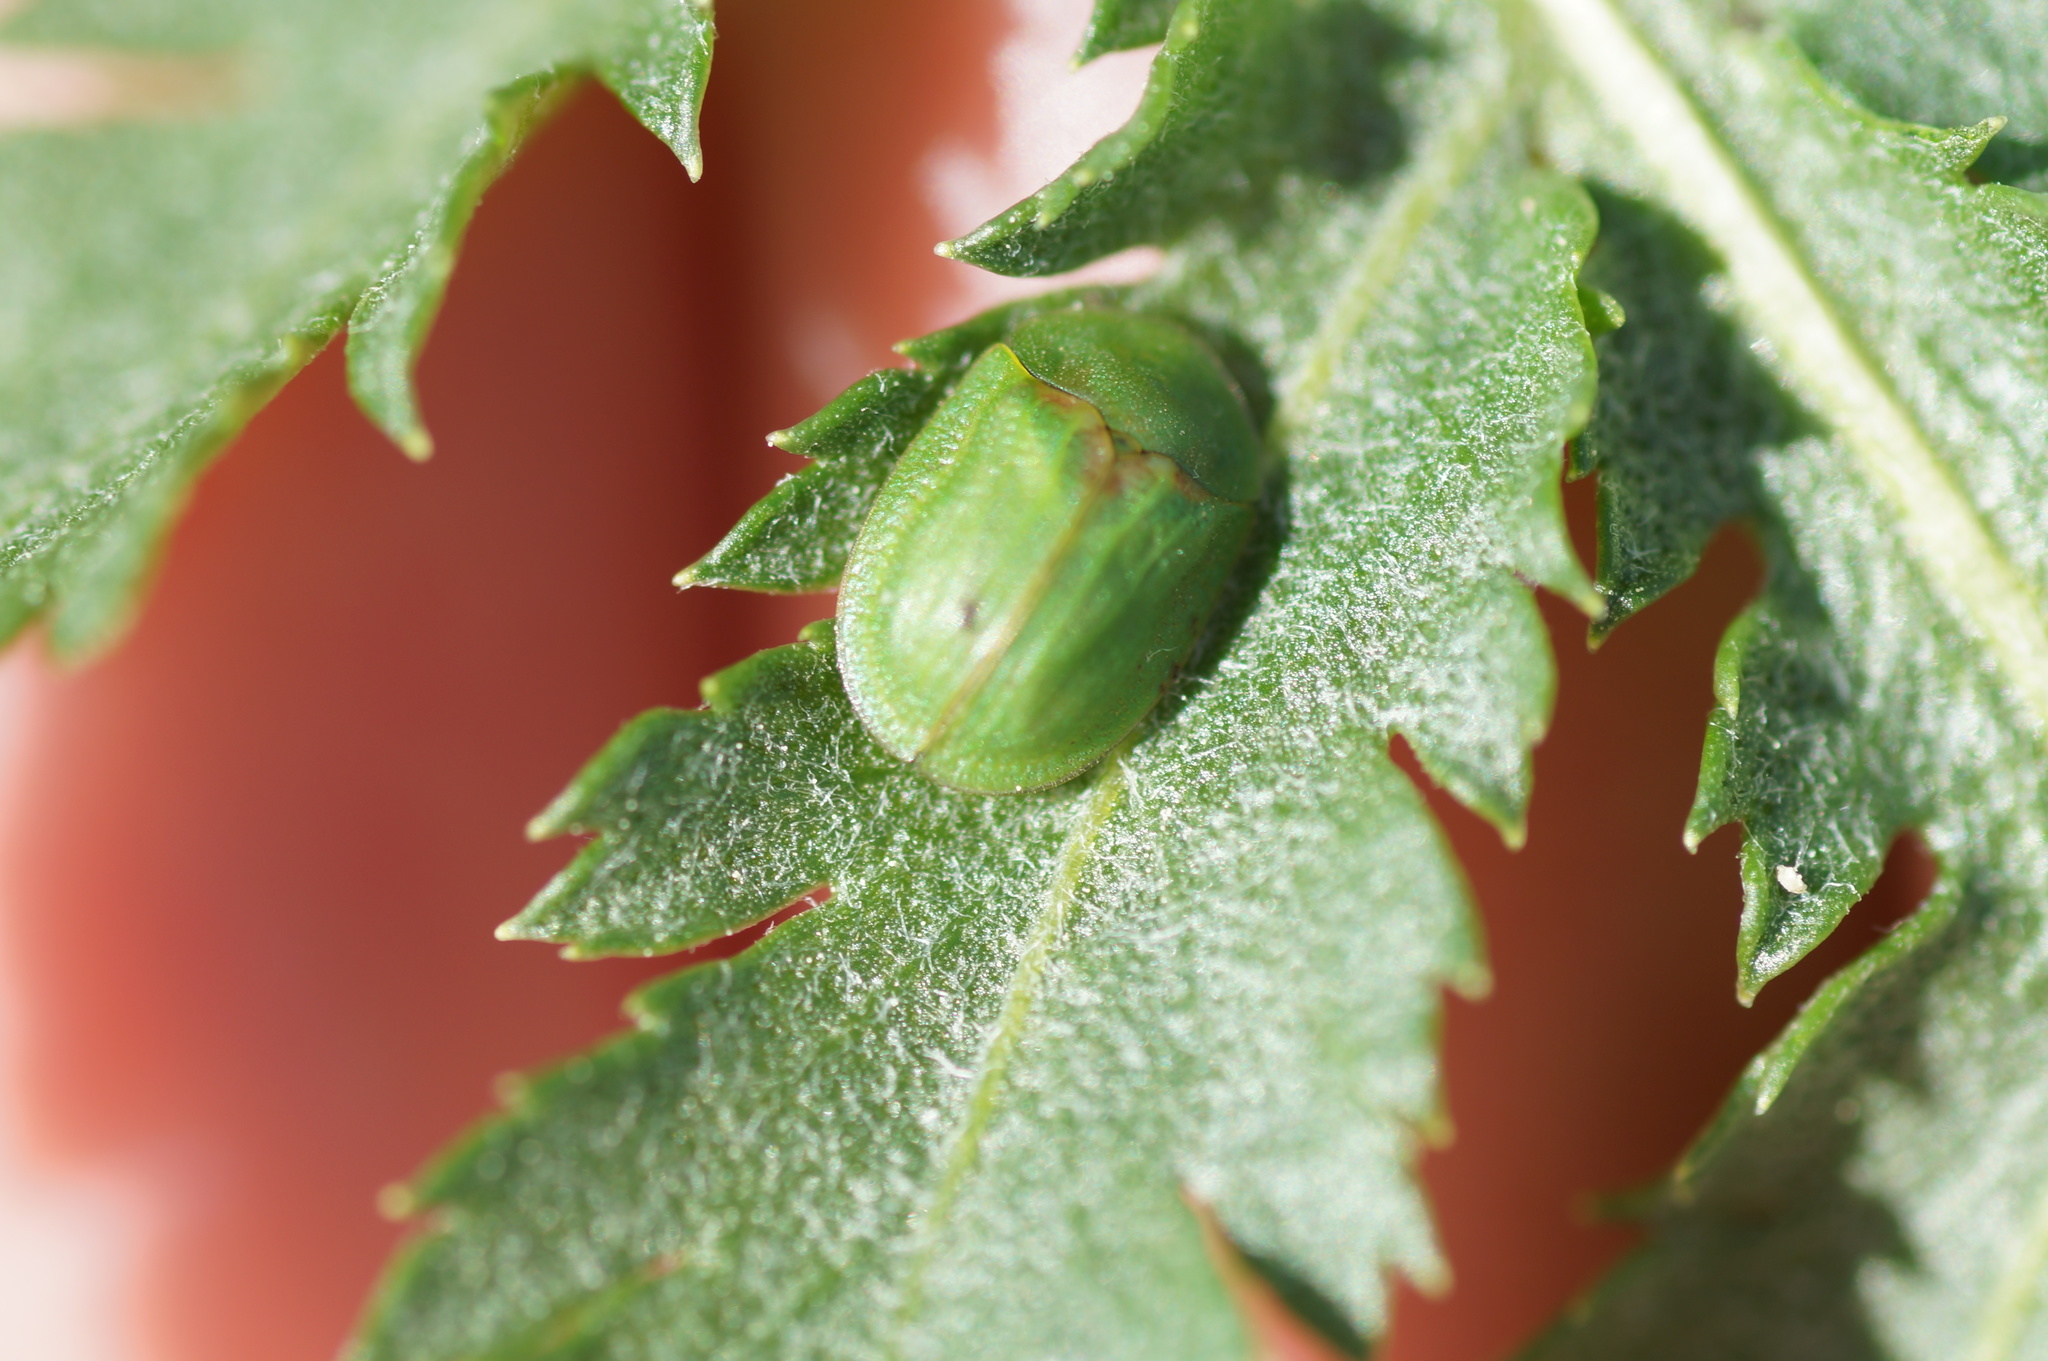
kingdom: Animalia
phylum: Arthropoda
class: Insecta
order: Coleoptera
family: Chrysomelidae
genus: Cassida
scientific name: Cassida stigmatica
